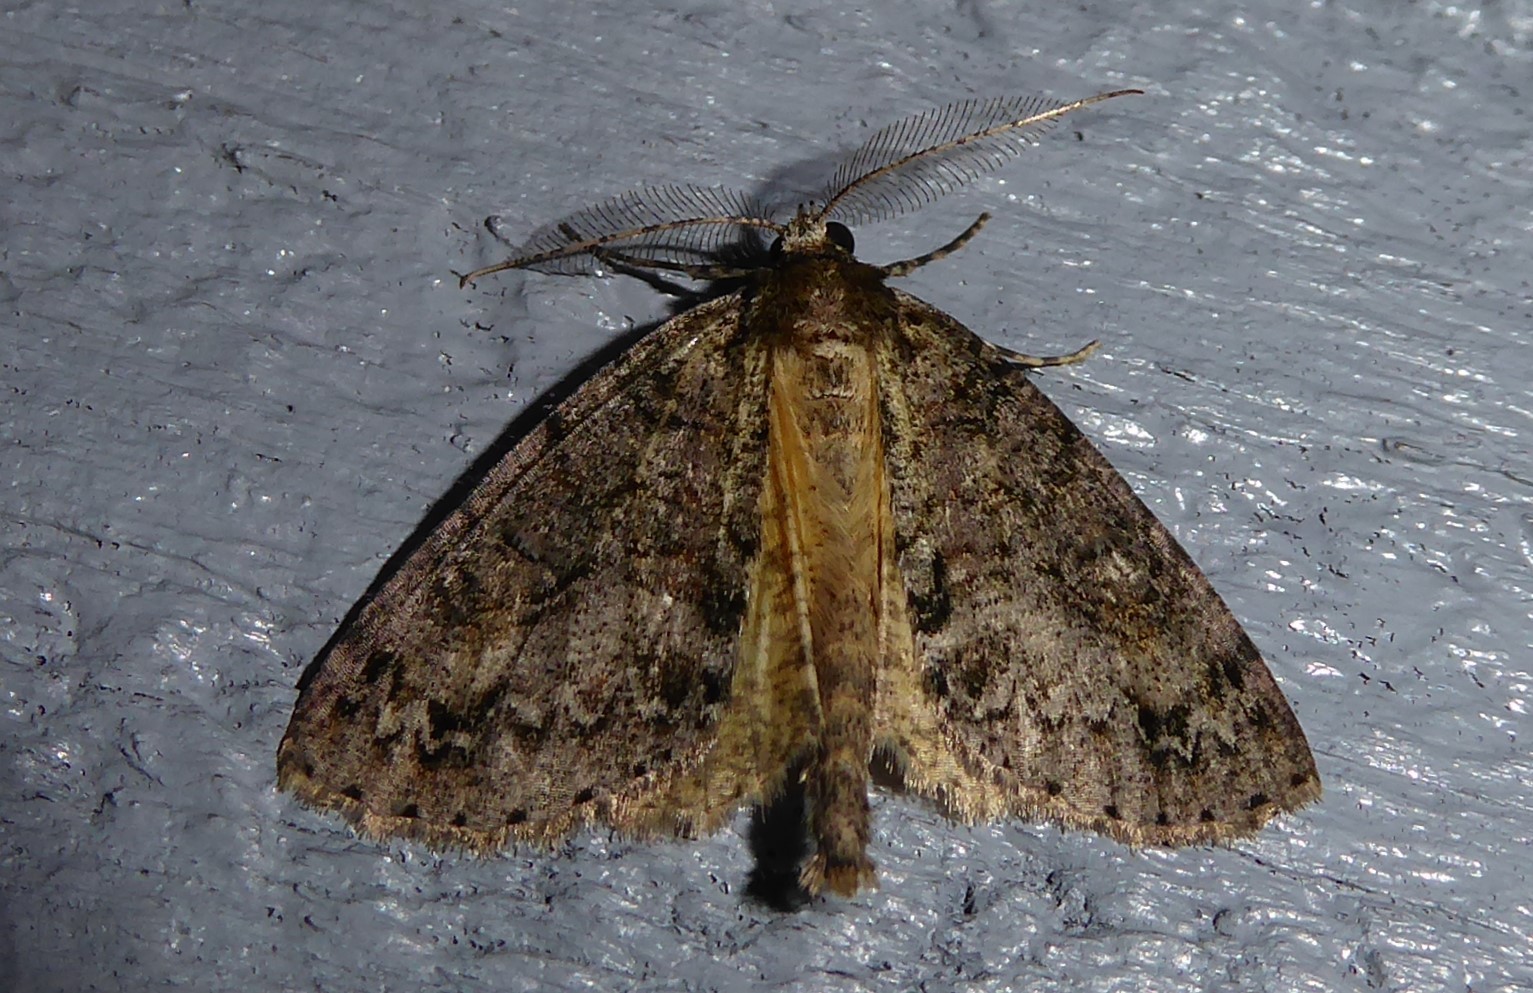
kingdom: Animalia
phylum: Arthropoda
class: Insecta
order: Lepidoptera
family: Geometridae
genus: Pseudocoremia
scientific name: Pseudocoremia suavis
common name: Common forest looper
